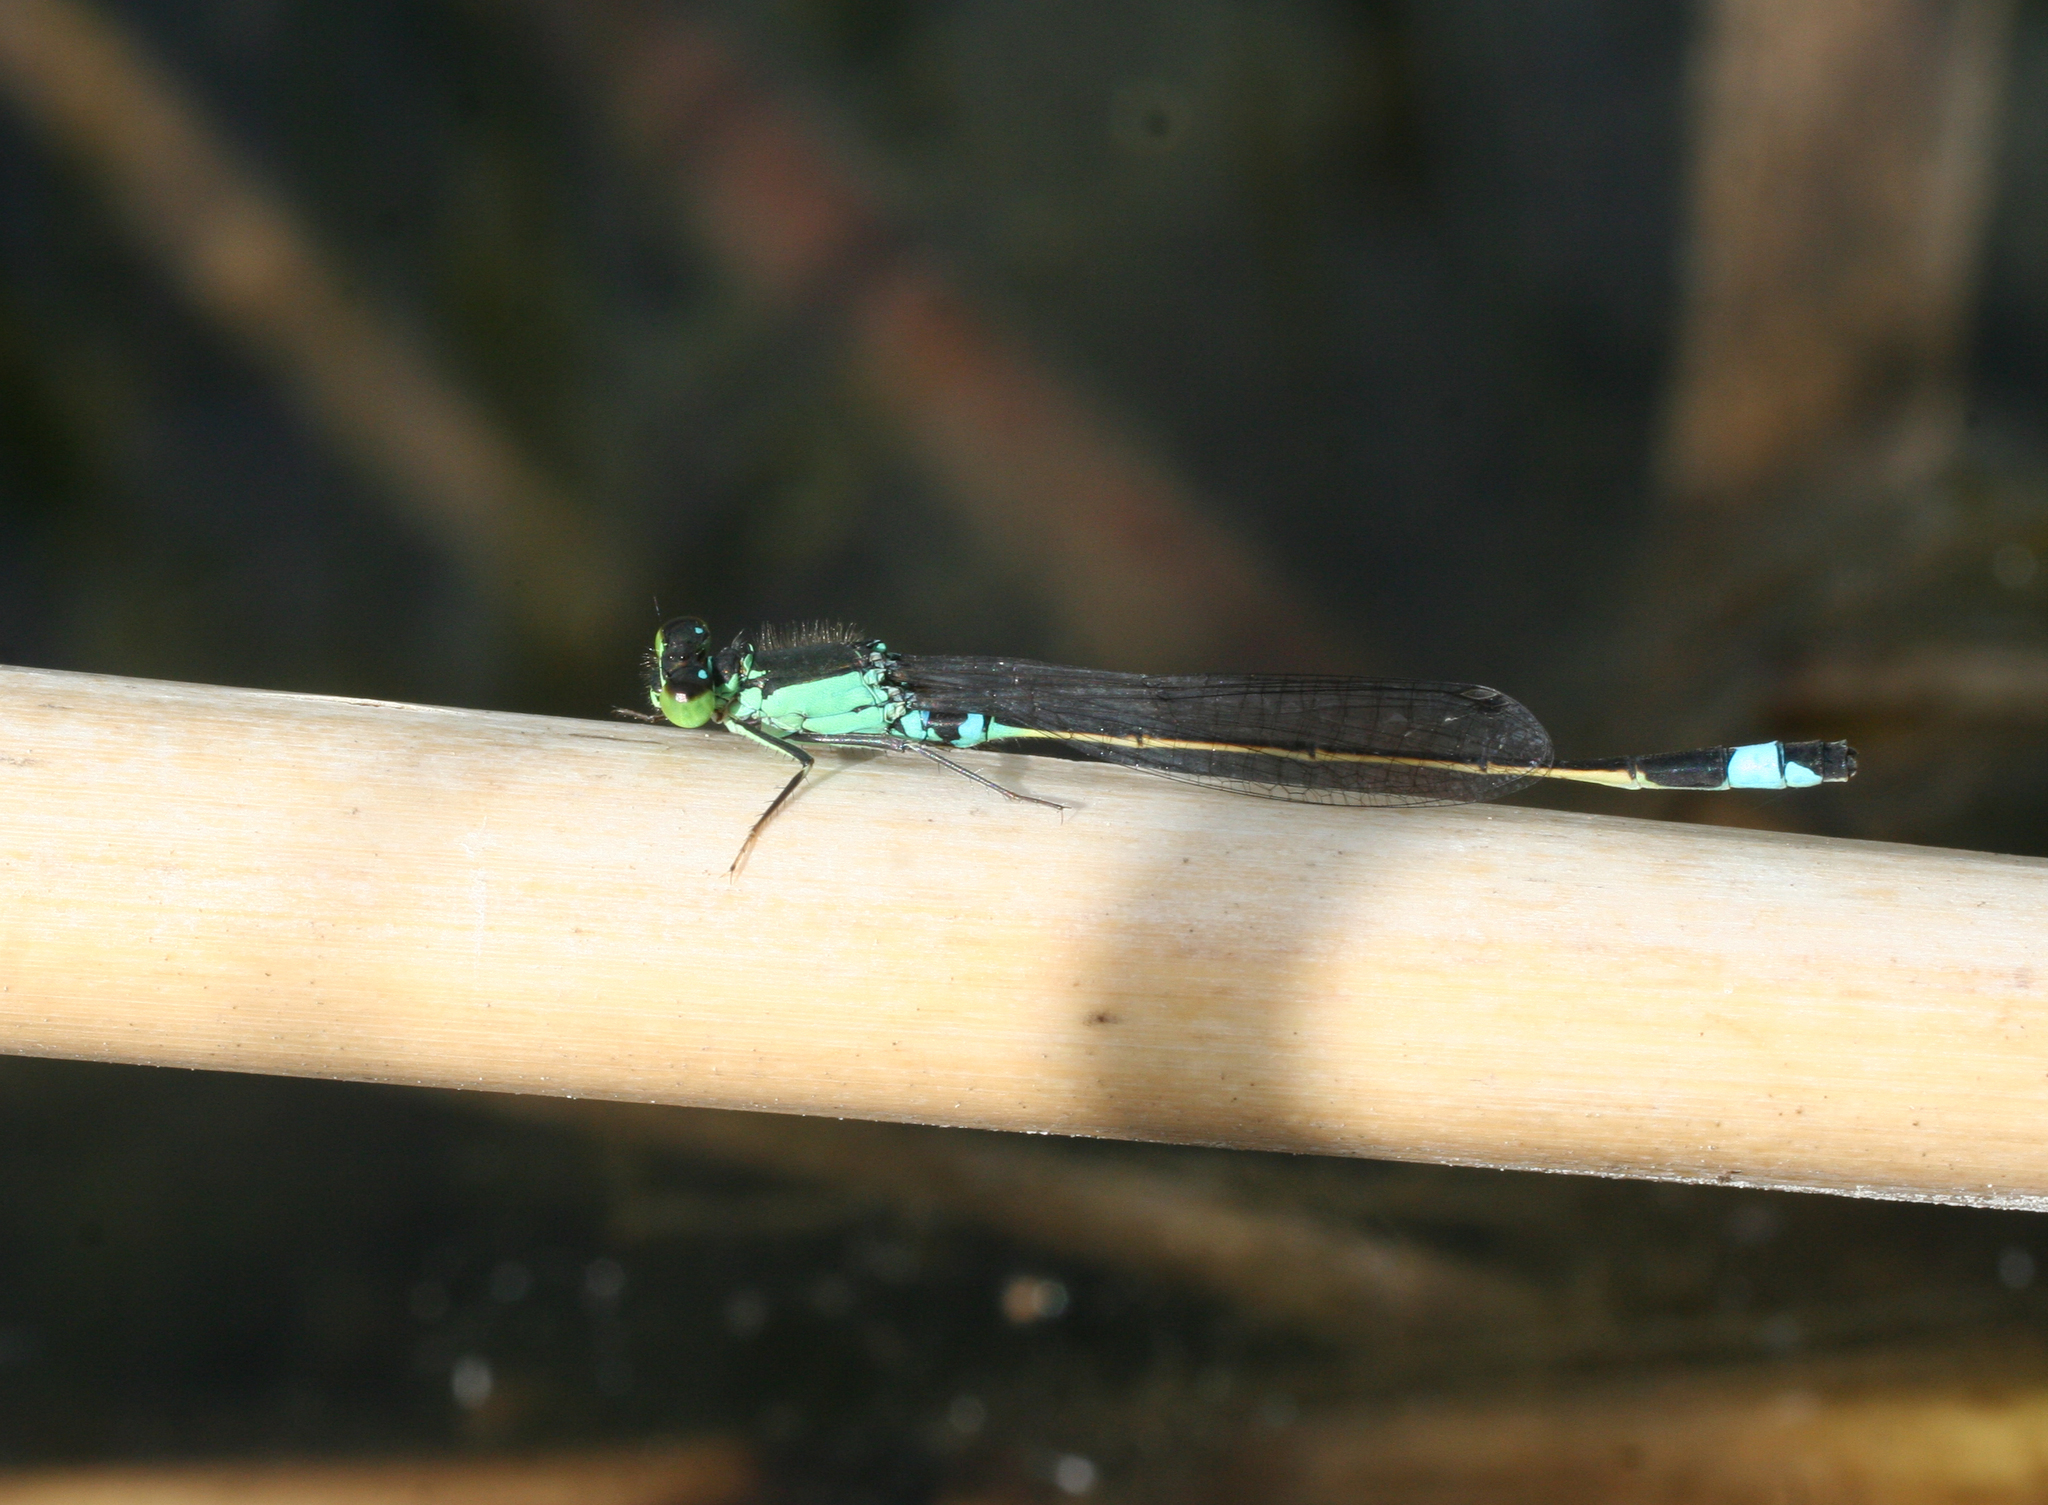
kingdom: Animalia
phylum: Arthropoda
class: Insecta
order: Odonata
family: Coenagrionidae
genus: Ischnura
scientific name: Ischnura aralensis
